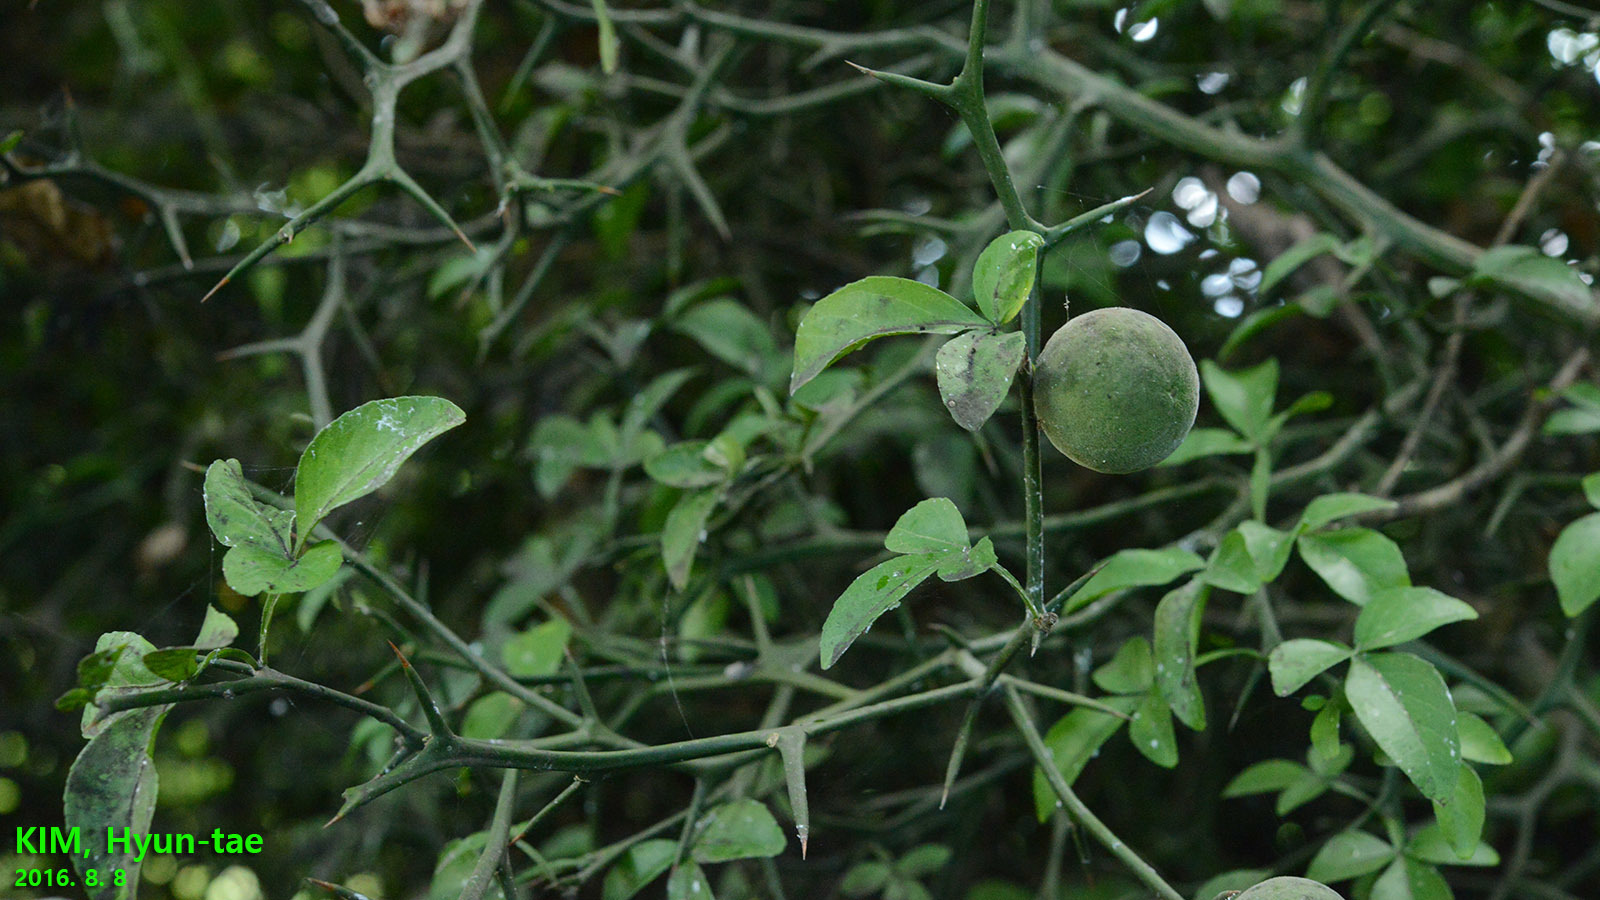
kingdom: Plantae
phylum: Tracheophyta
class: Magnoliopsida
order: Sapindales
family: Rutaceae
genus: Citrus
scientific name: Citrus trifoliata
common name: Japanese bitter-orange
